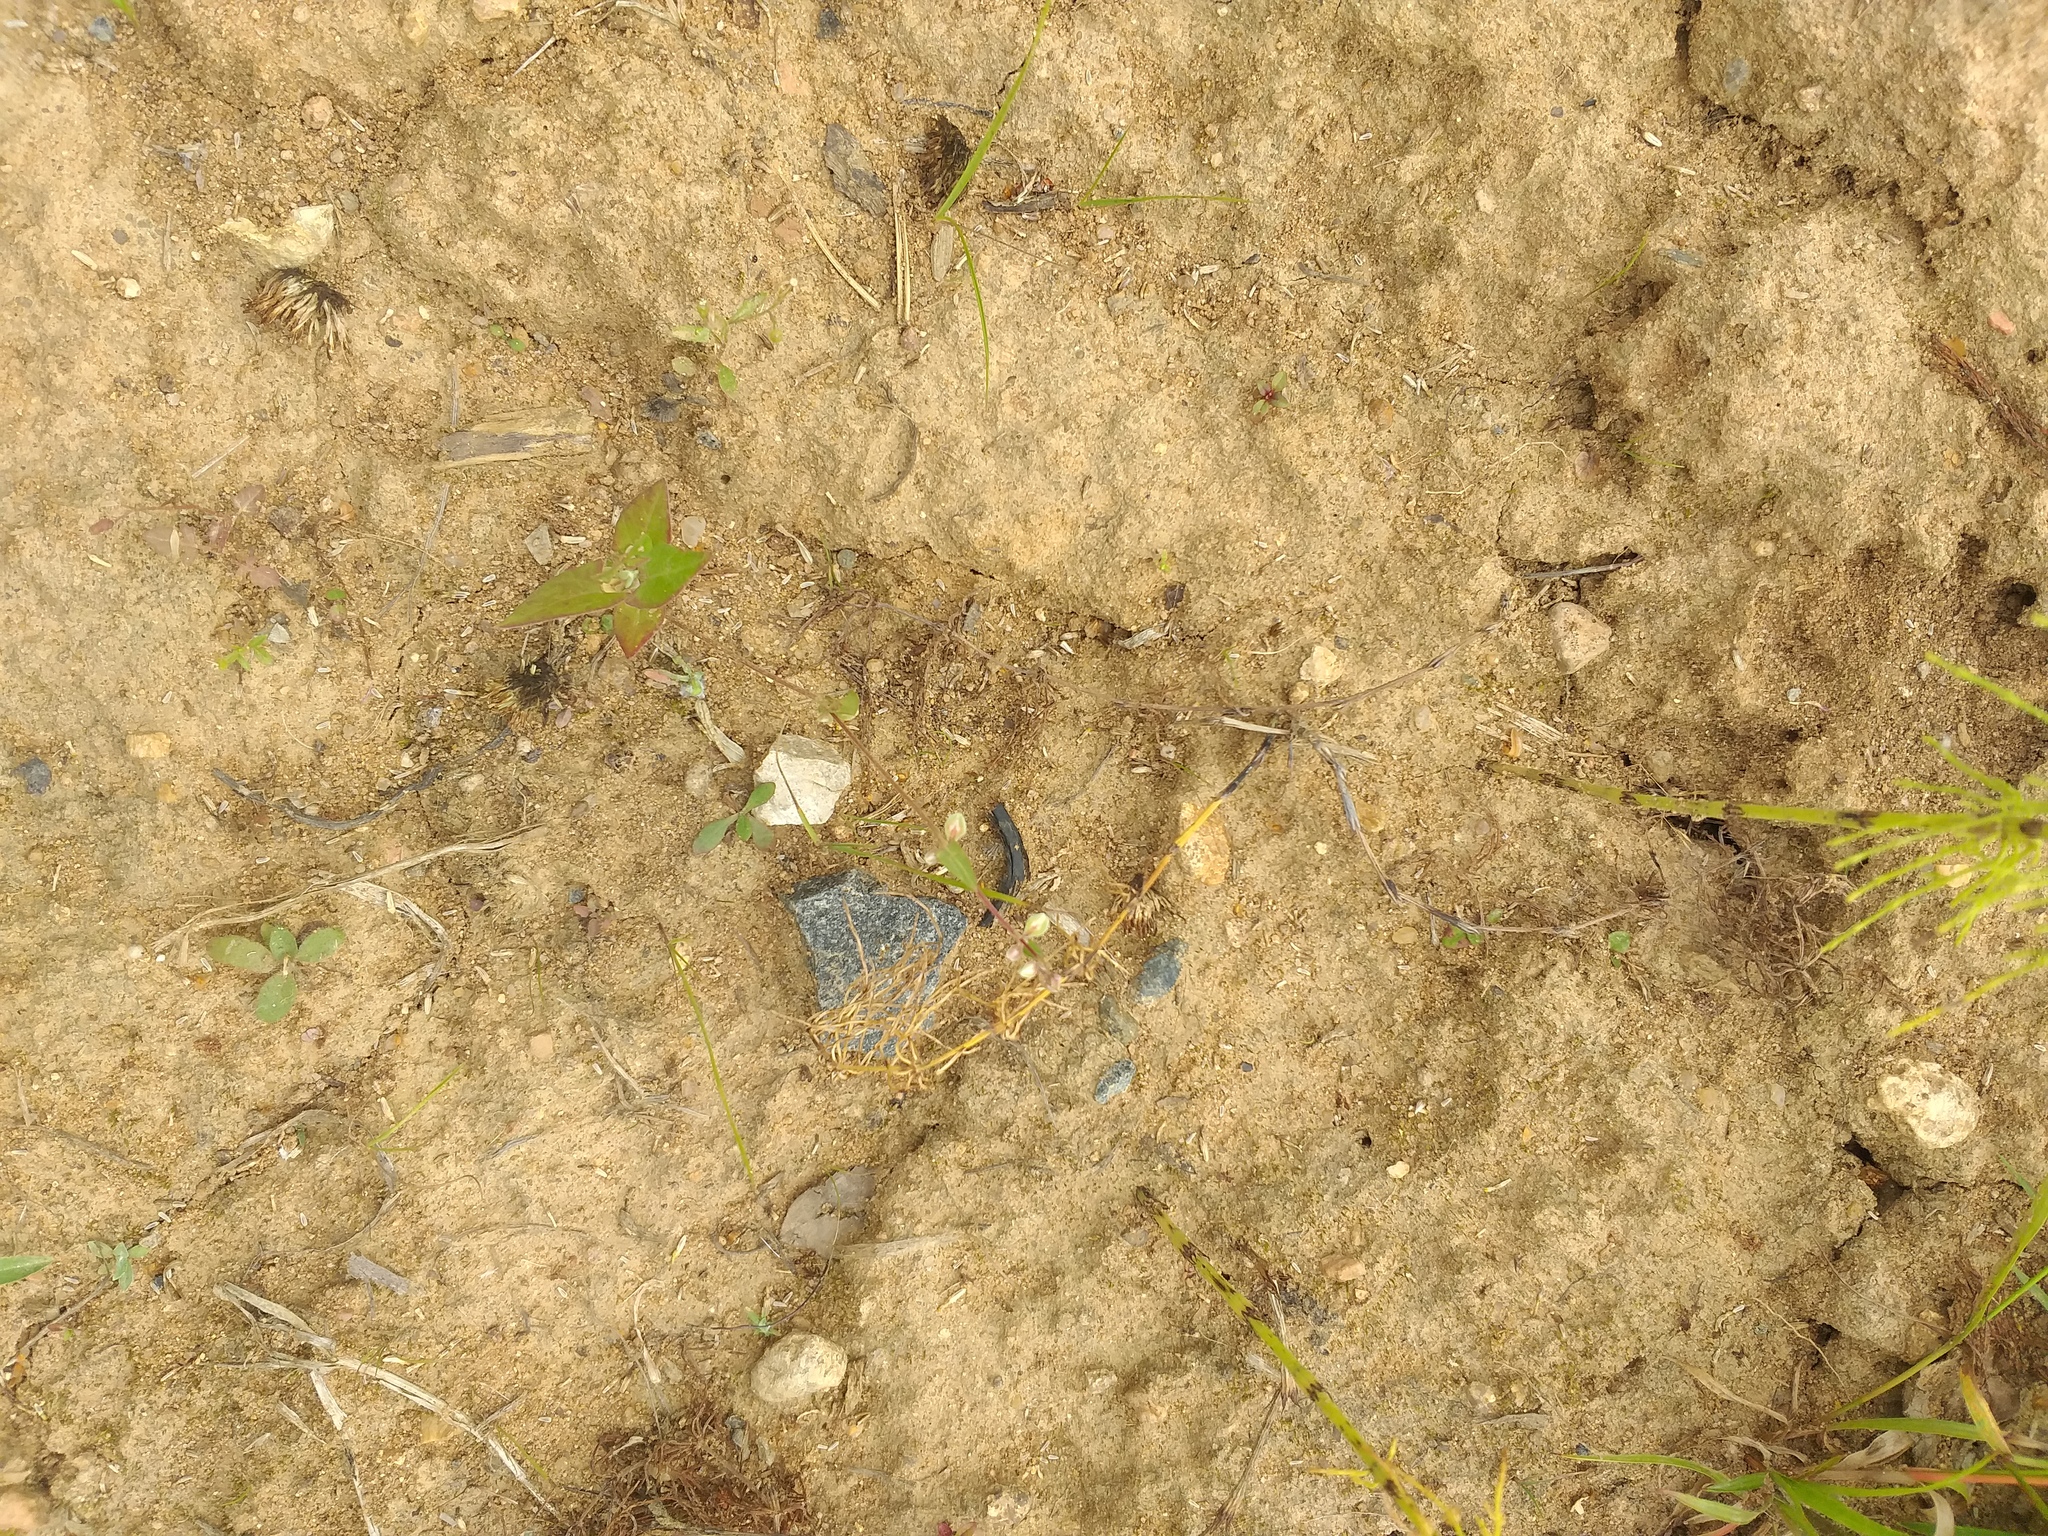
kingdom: Plantae
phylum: Tracheophyta
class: Magnoliopsida
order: Caryophyllales
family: Polygonaceae
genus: Fallopia
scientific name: Fallopia convolvulus
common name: Black bindweed
